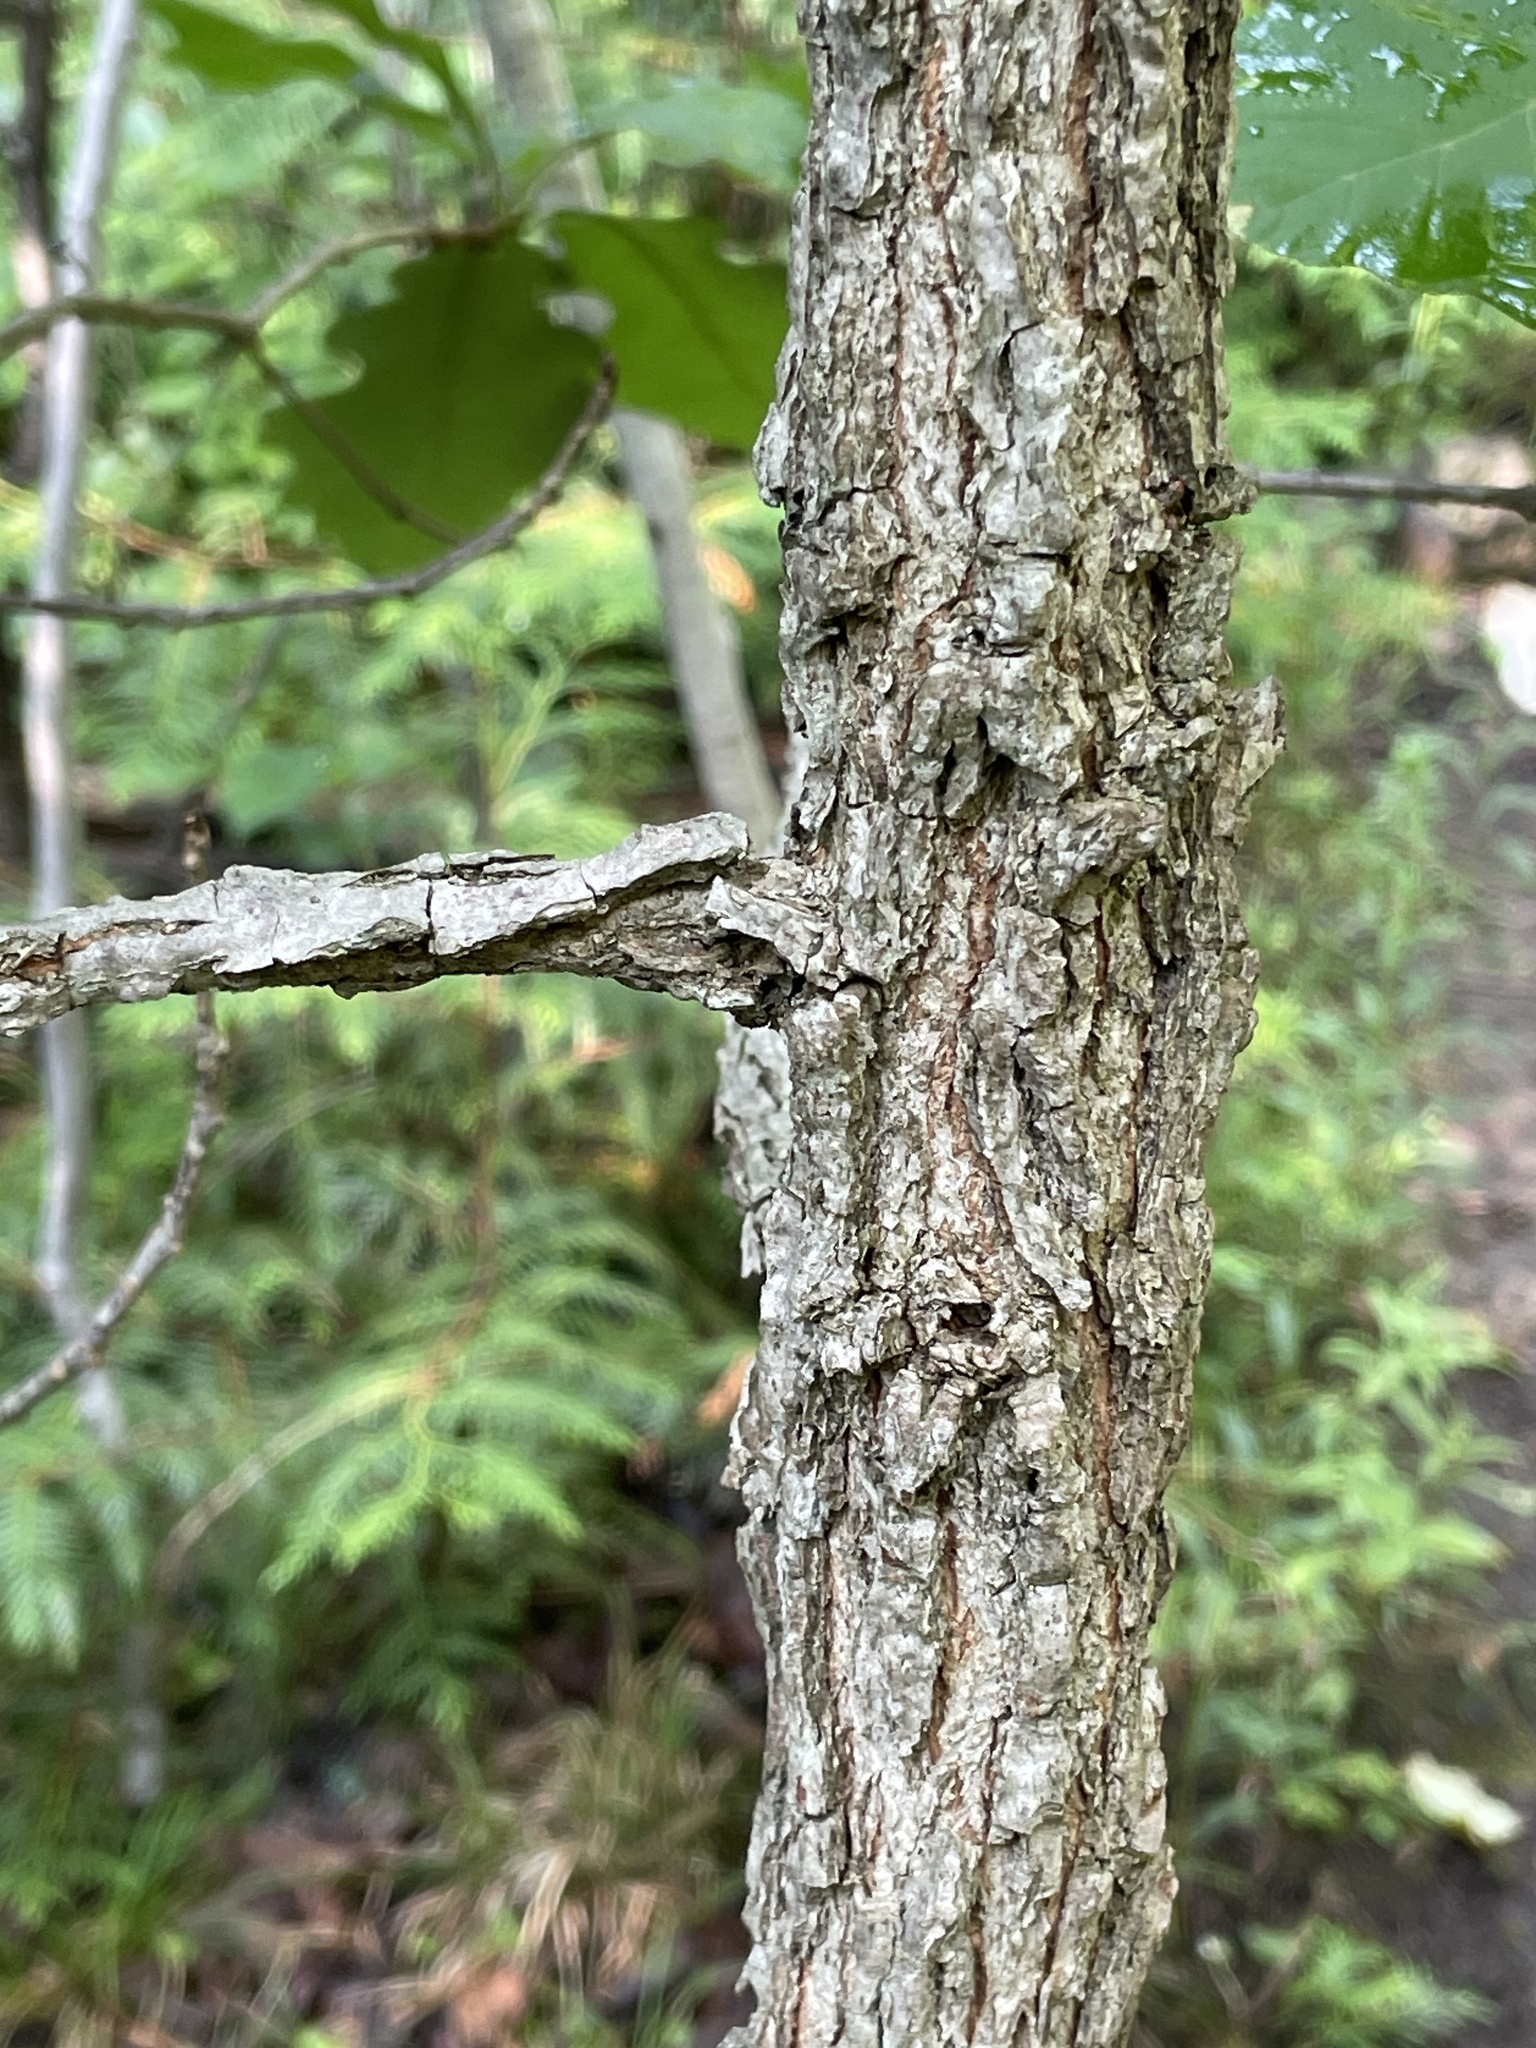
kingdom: Plantae
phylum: Tracheophyta
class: Magnoliopsida
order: Fagales
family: Fagaceae
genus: Quercus
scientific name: Quercus macrocarpa
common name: Bur oak
